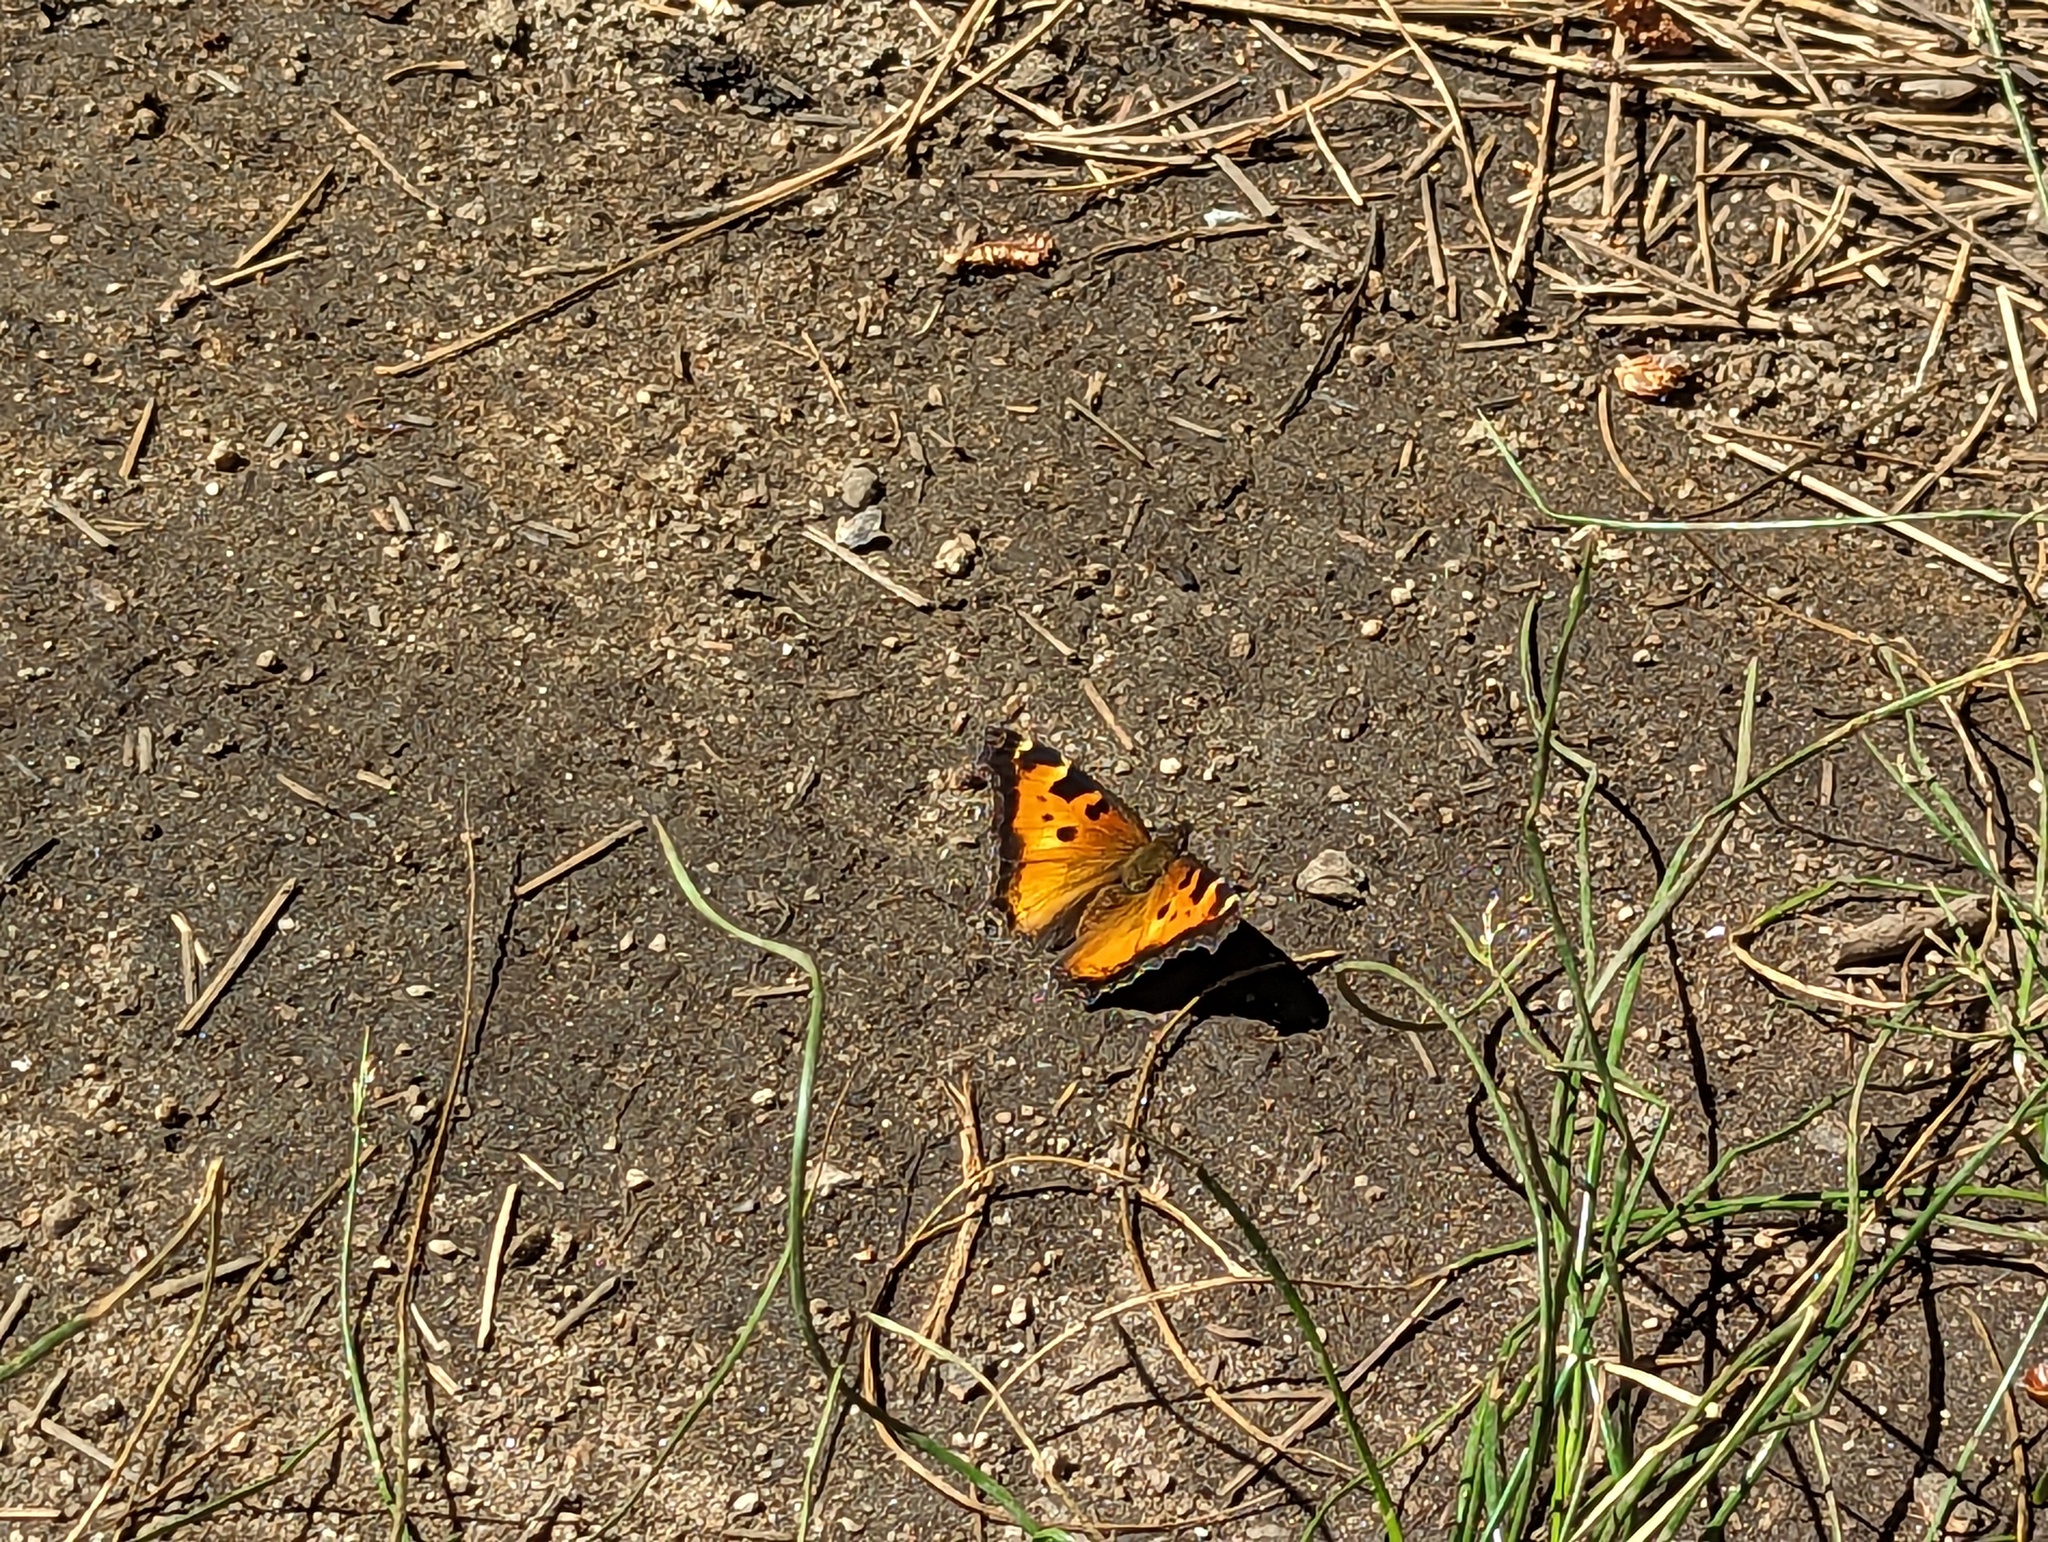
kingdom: Animalia
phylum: Arthropoda
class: Insecta
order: Lepidoptera
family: Nymphalidae
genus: Nymphalis
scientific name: Nymphalis californica
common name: California tortoiseshell
